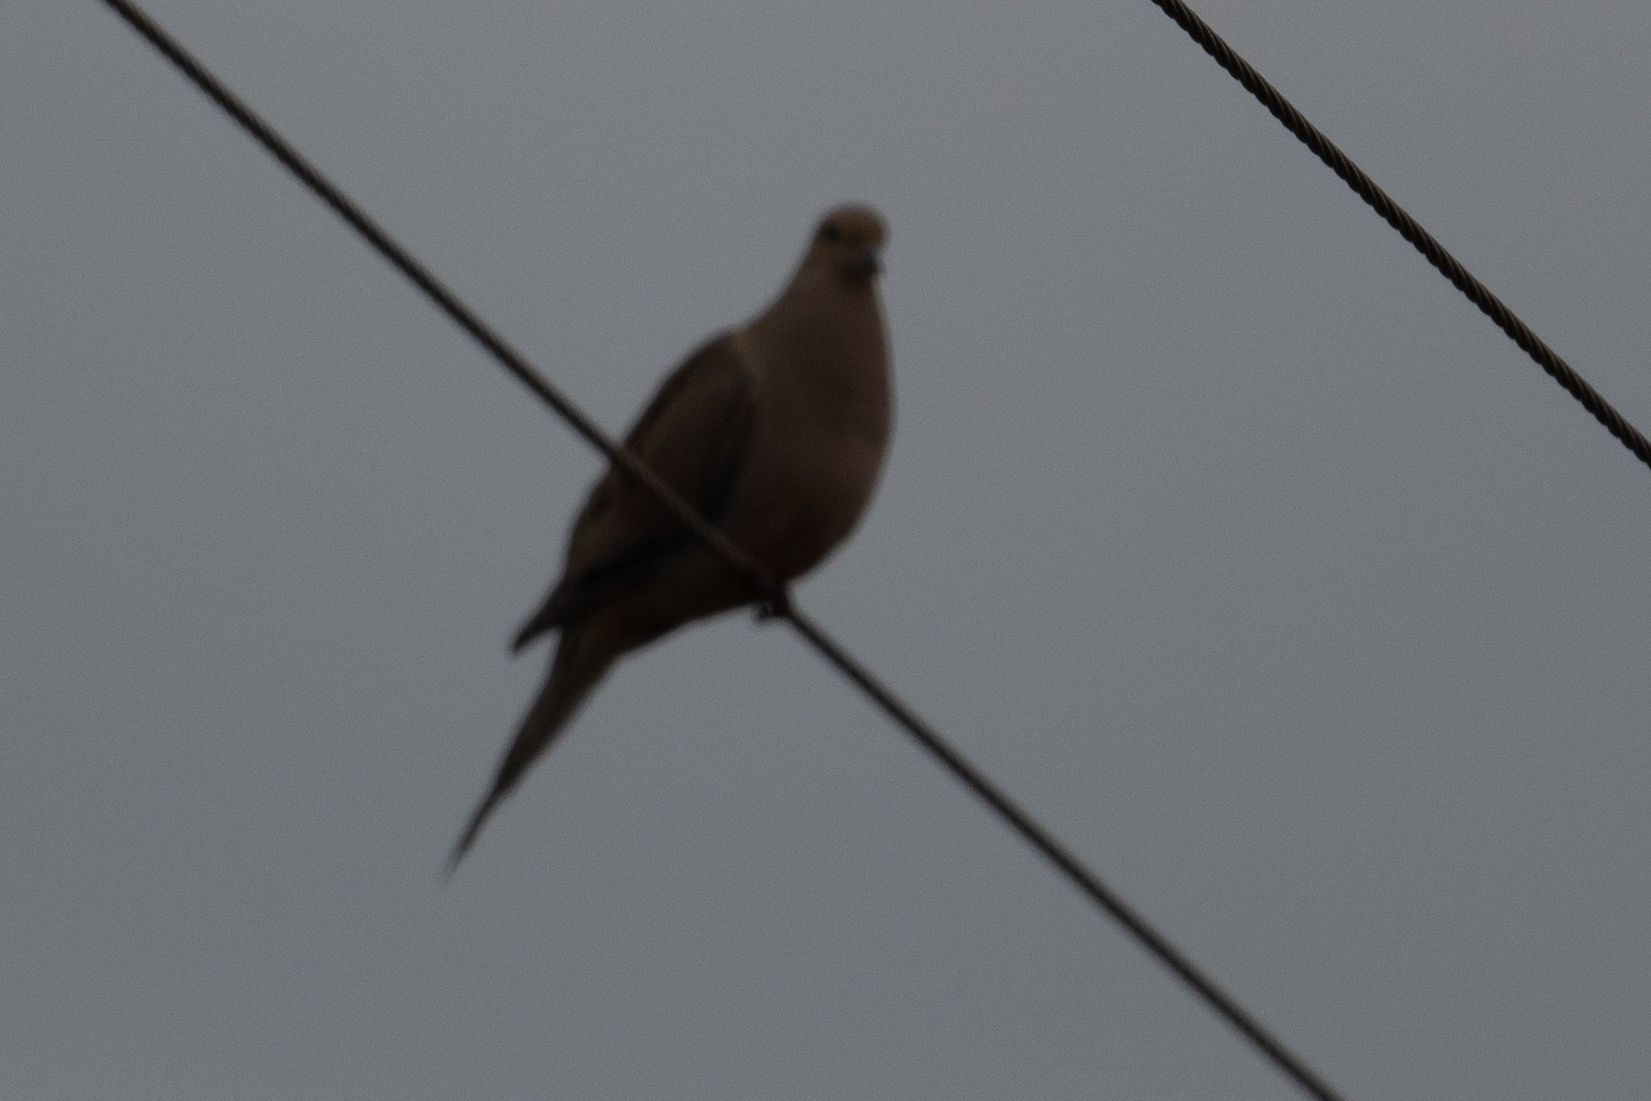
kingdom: Animalia
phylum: Chordata
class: Aves
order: Columbiformes
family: Columbidae
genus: Zenaida
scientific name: Zenaida macroura
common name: Mourning dove
